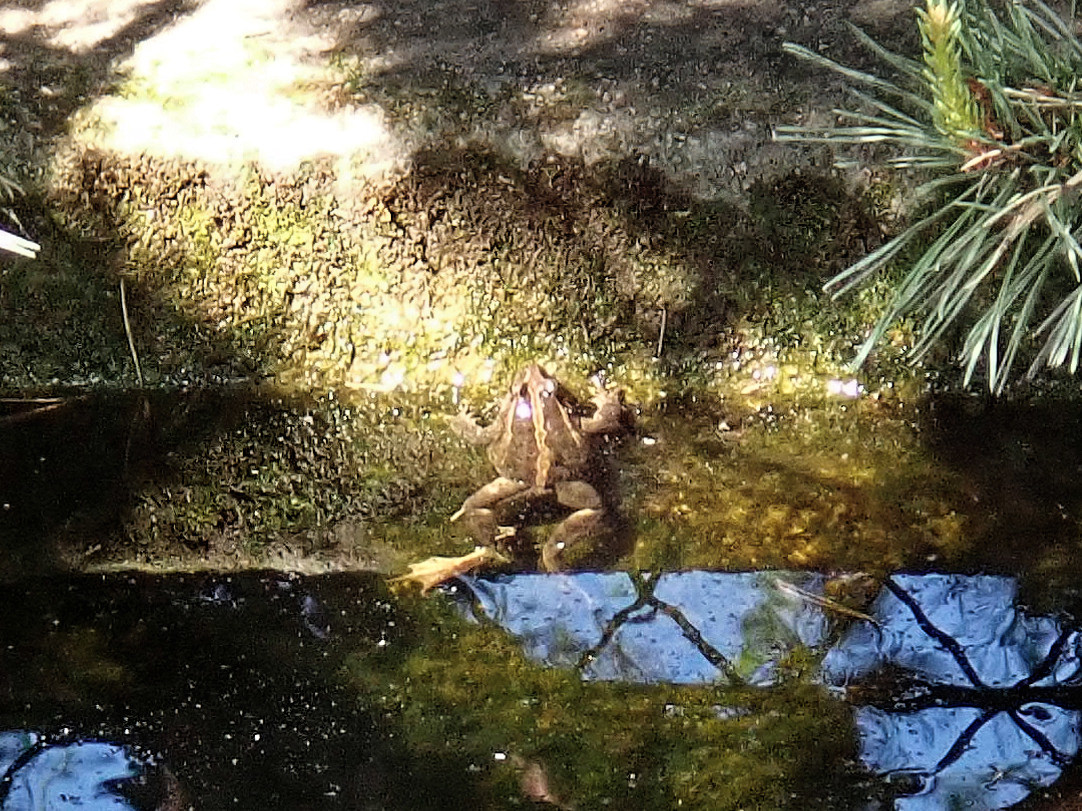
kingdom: Animalia
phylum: Chordata
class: Amphibia
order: Anura
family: Alytidae
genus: Discoglossus
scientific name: Discoglossus pictus
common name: Painted frog
